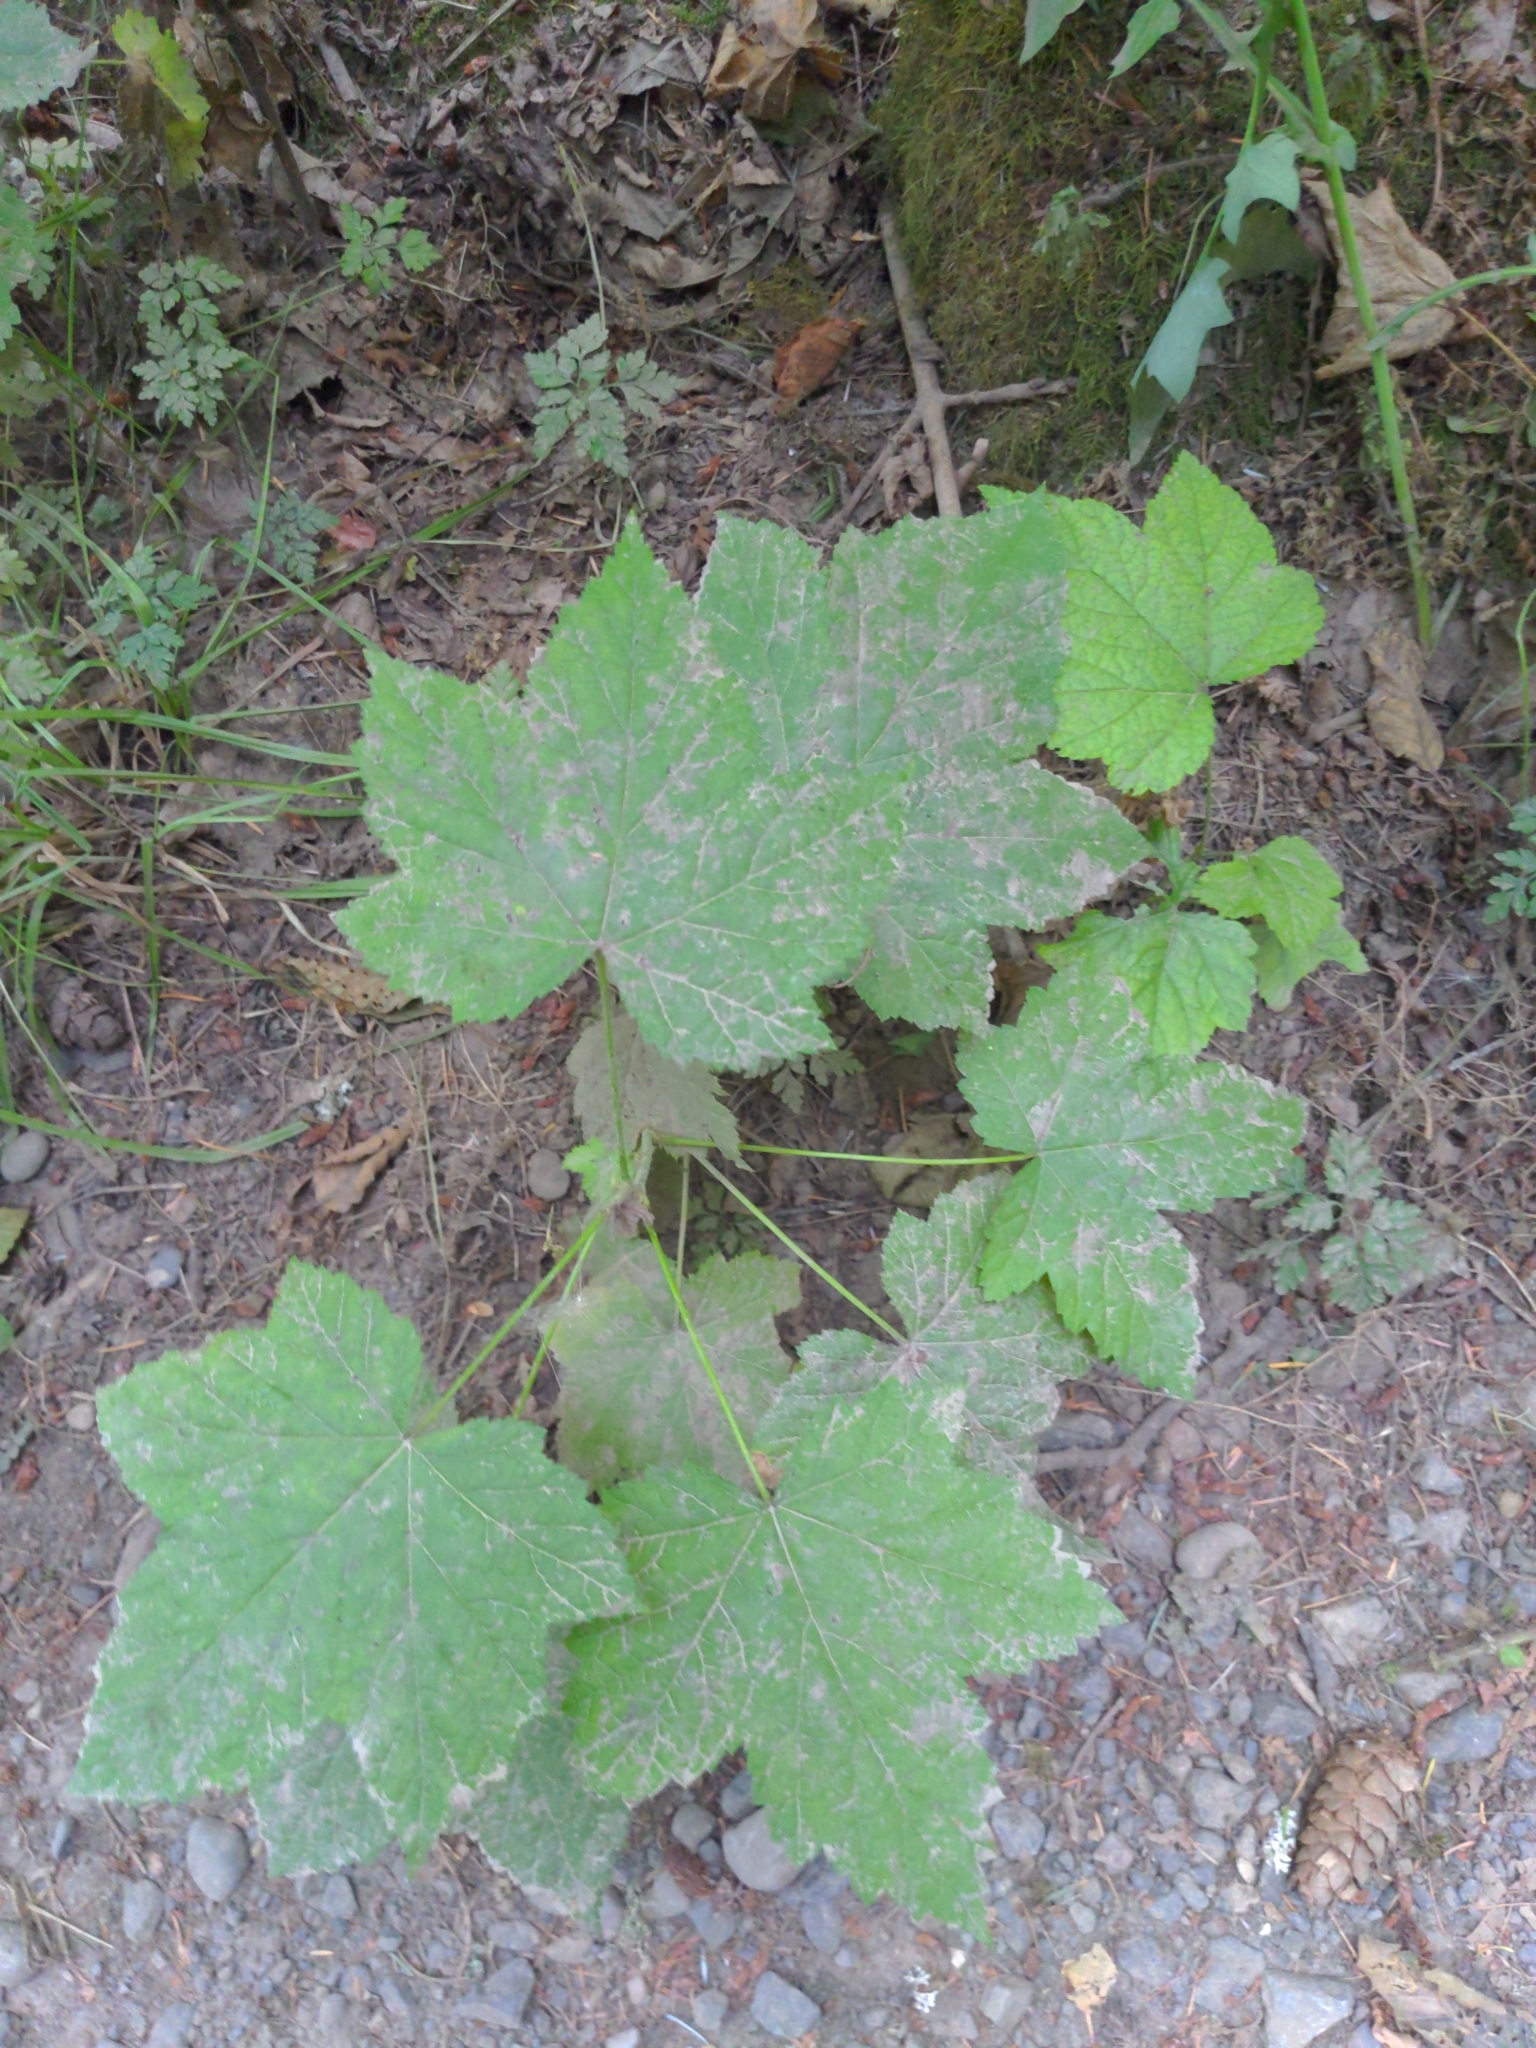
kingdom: Plantae
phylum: Tracheophyta
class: Magnoliopsida
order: Rosales
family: Rosaceae
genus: Rubus
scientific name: Rubus parviflorus
